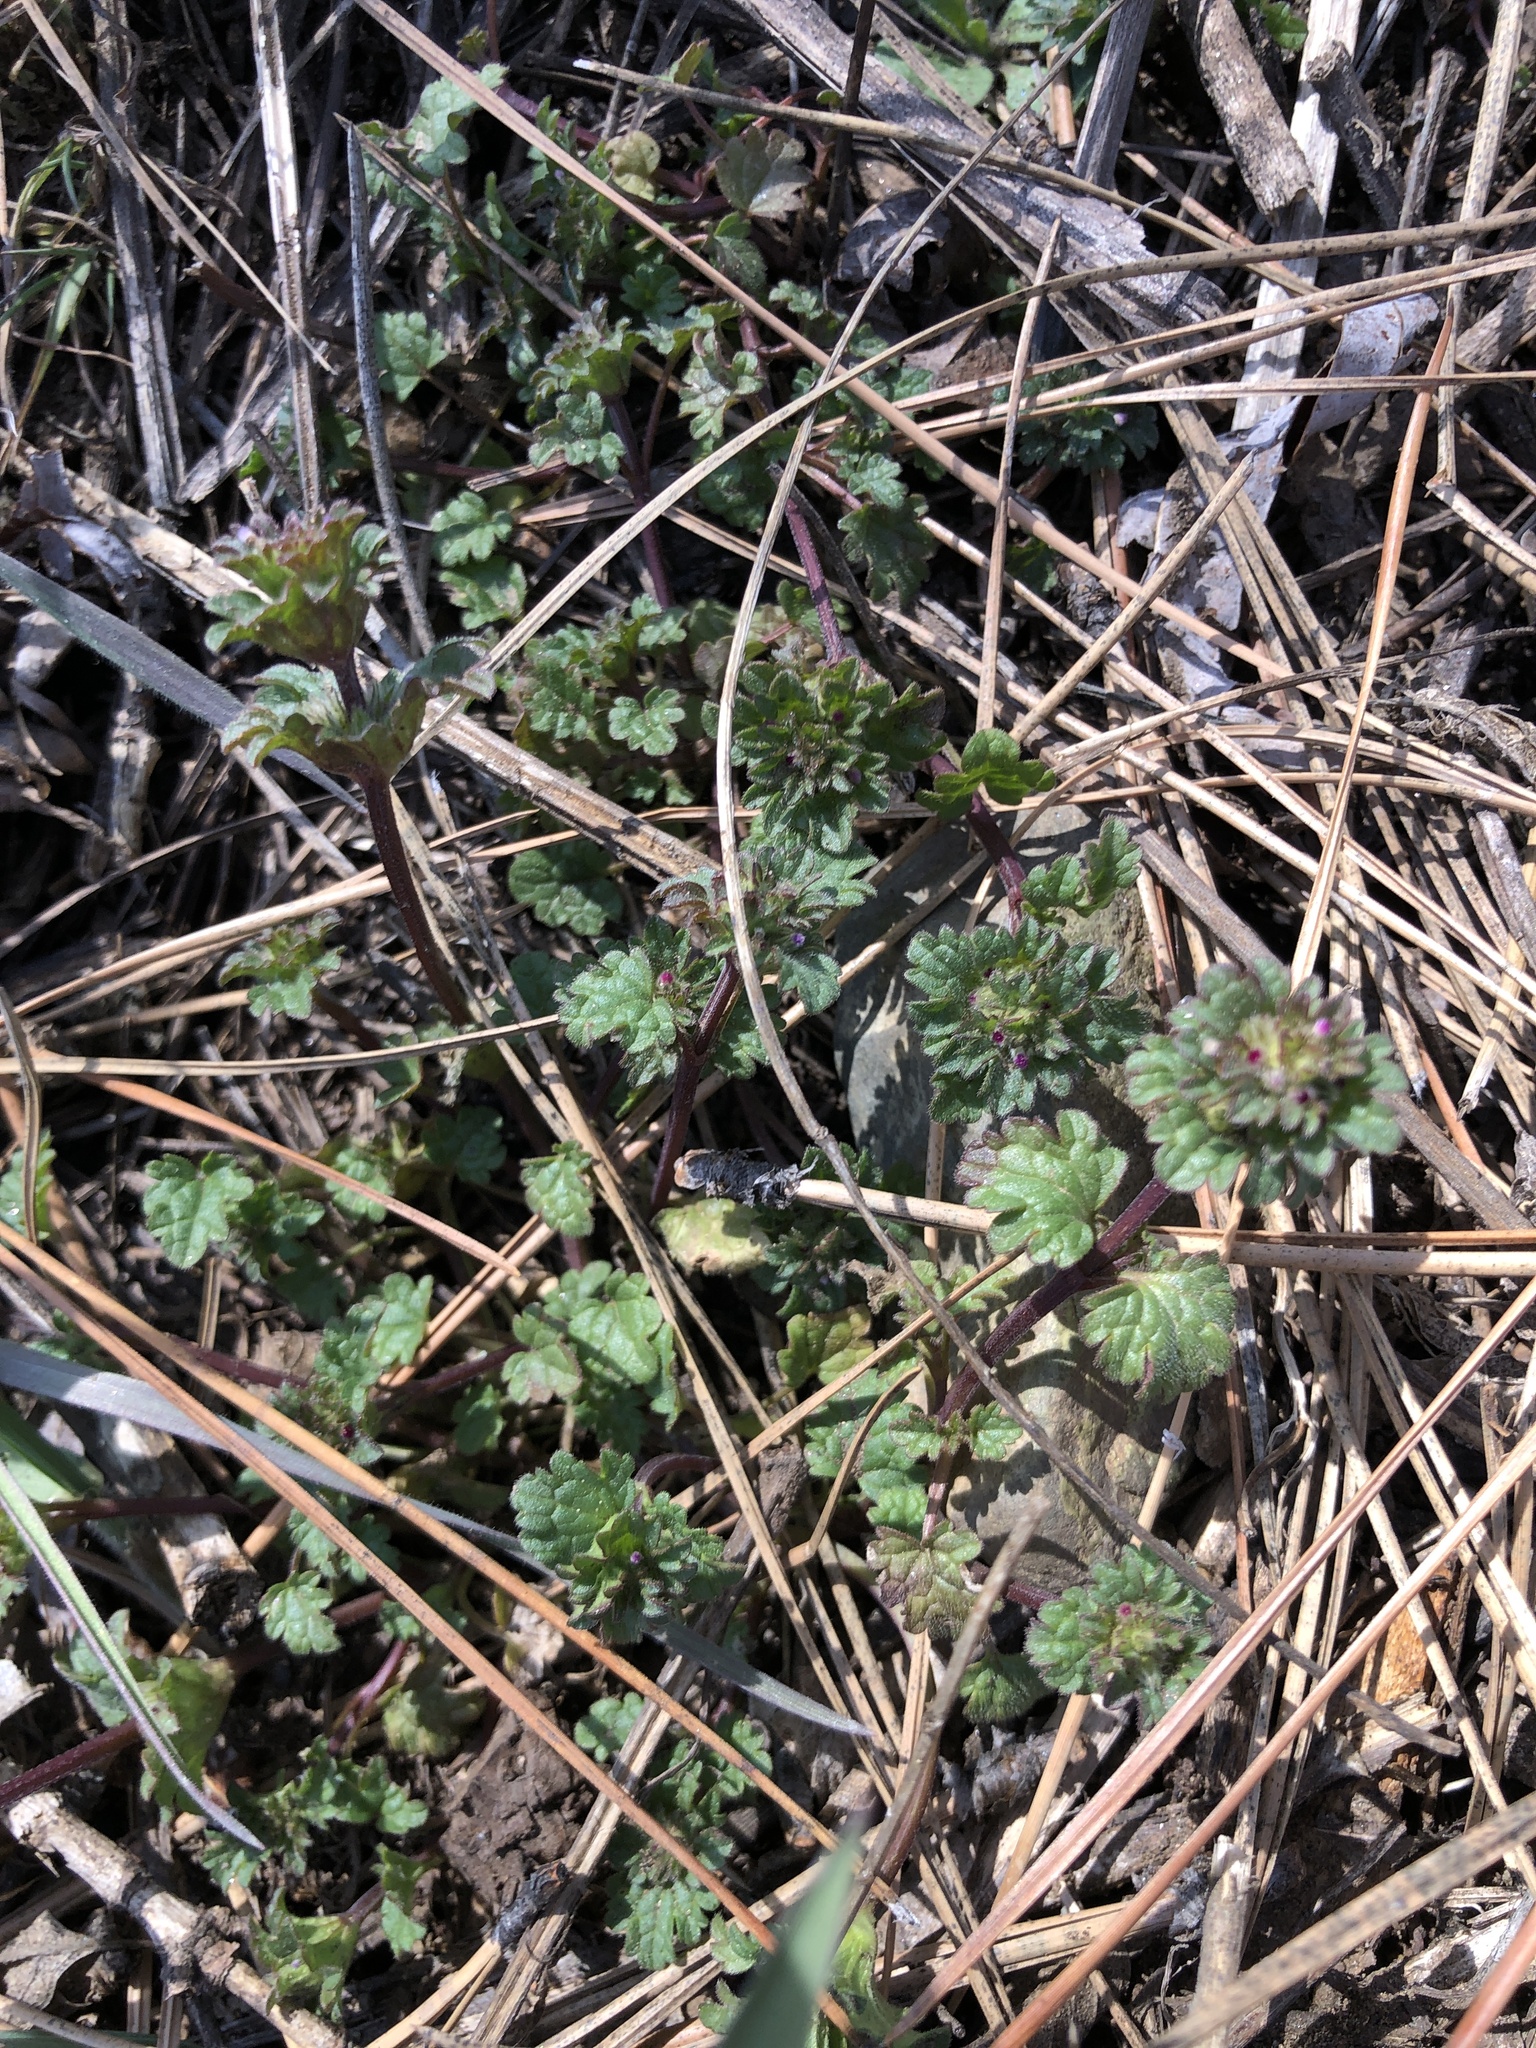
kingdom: Plantae
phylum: Tracheophyta
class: Magnoliopsida
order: Lamiales
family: Lamiaceae
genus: Lamium
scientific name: Lamium amplexicaule
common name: Henbit dead-nettle
